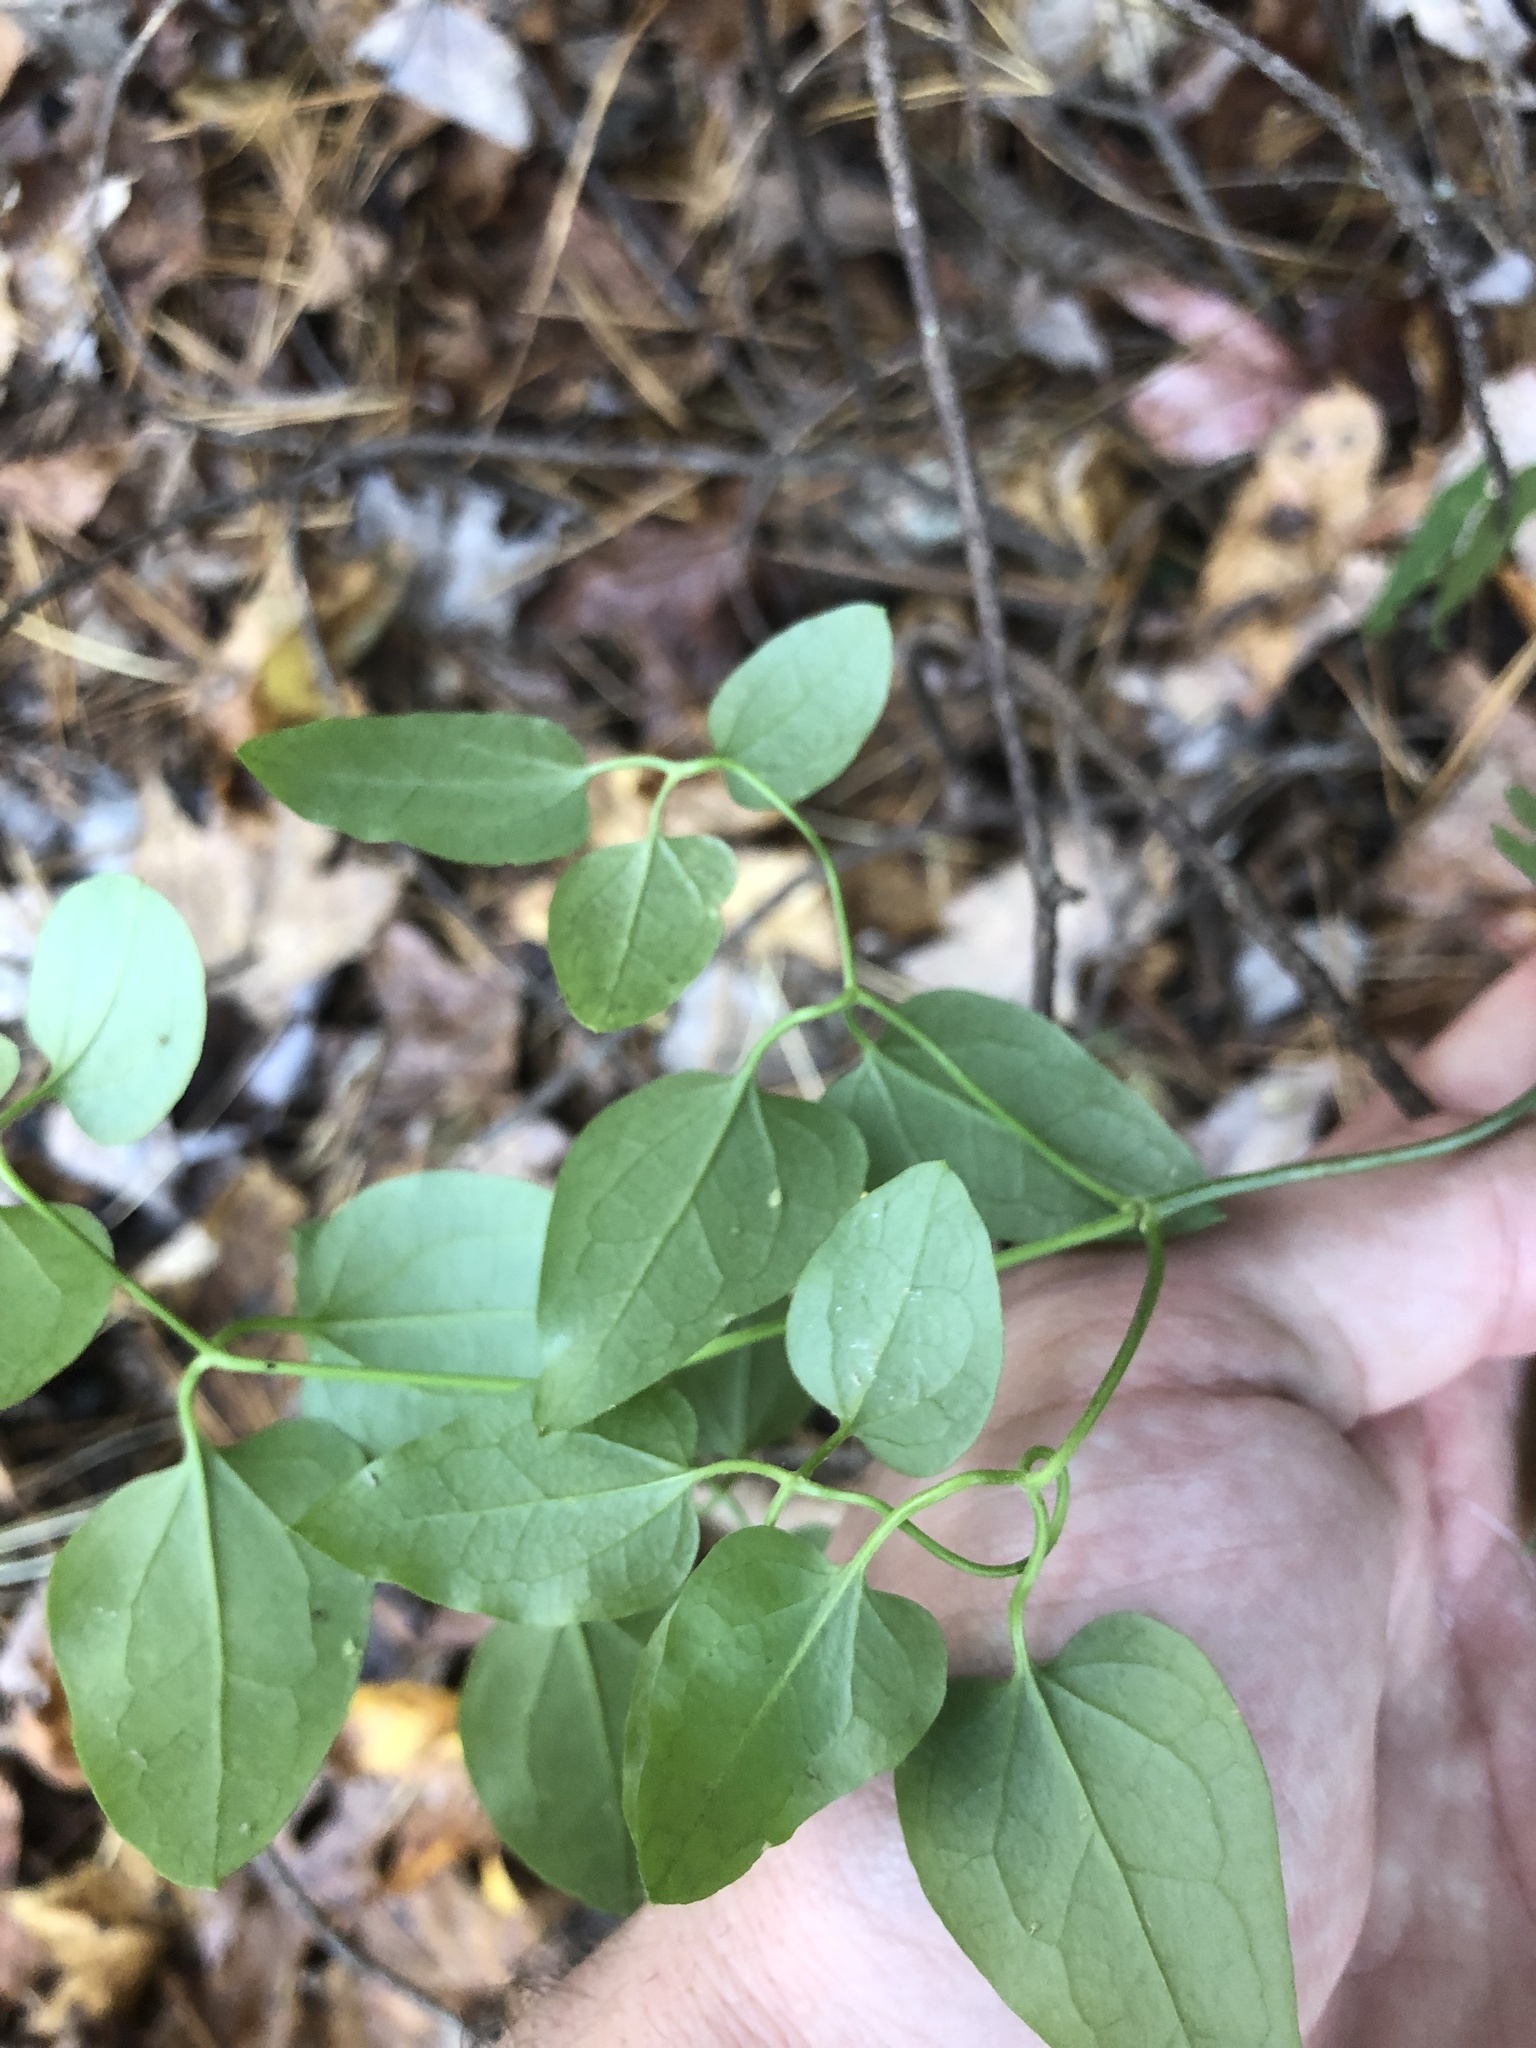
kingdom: Plantae
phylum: Tracheophyta
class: Magnoliopsida
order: Ranunculales
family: Ranunculaceae
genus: Clematis
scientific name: Clematis terniflora
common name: Sweet autumn clematis
